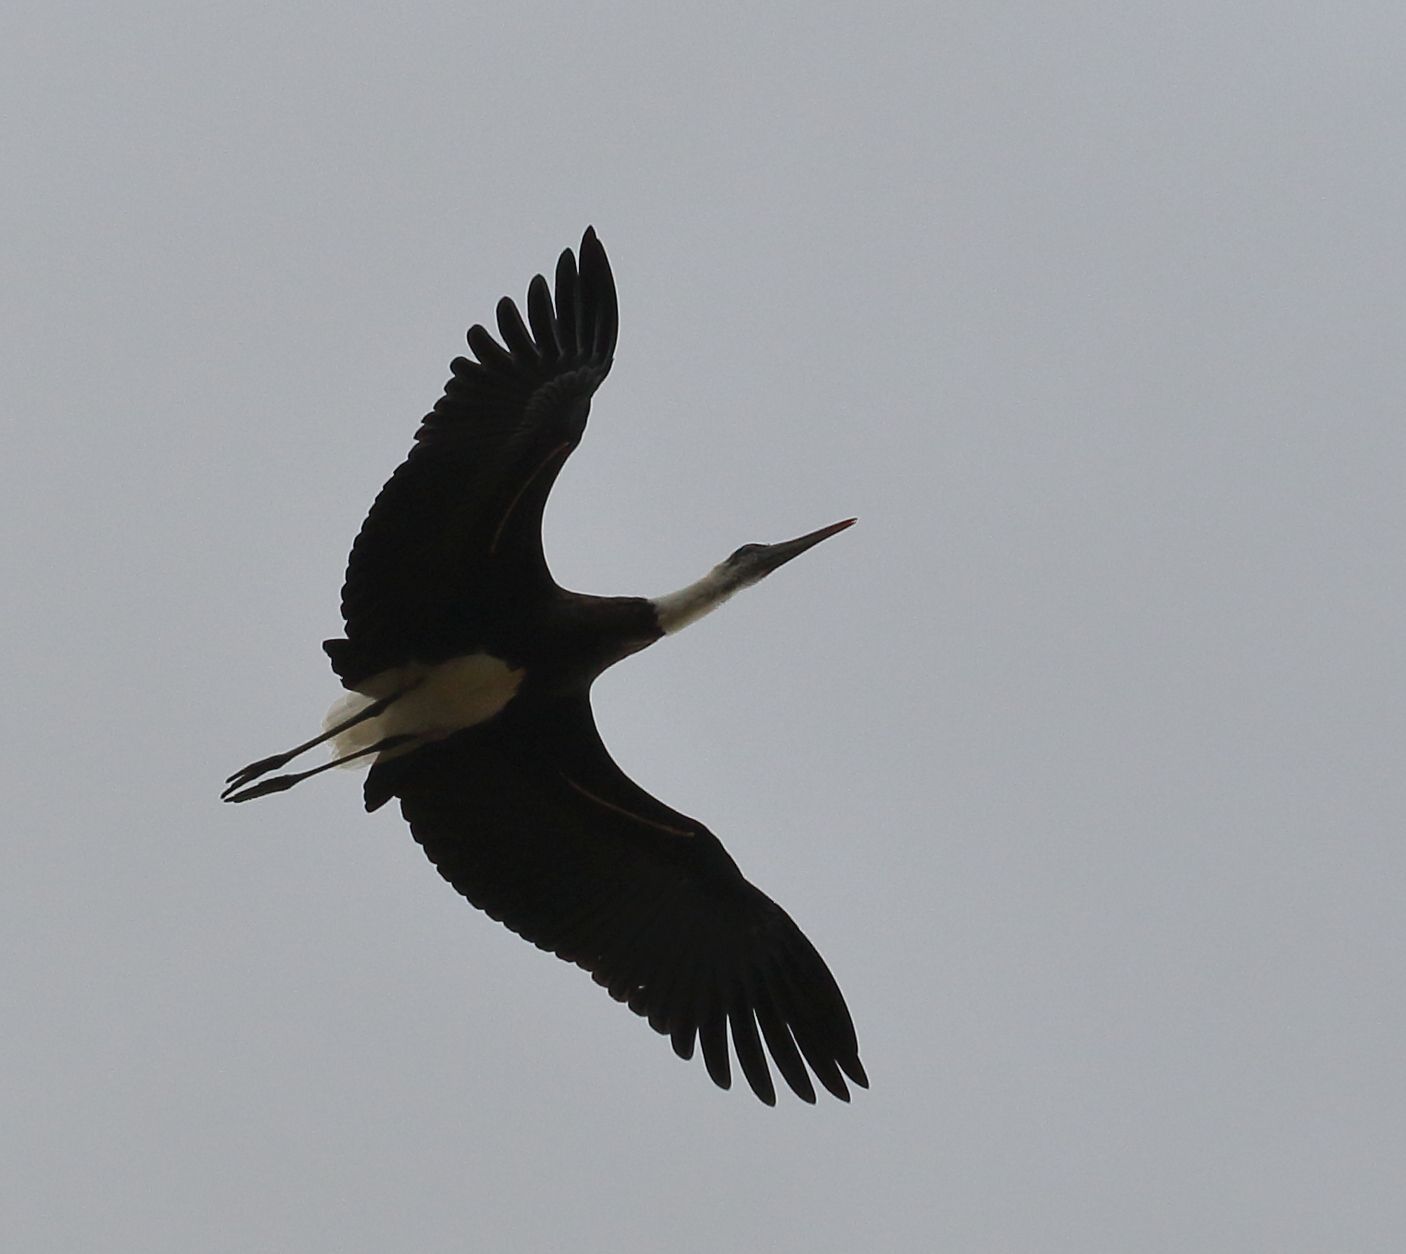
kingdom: Animalia
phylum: Chordata
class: Aves
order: Ciconiiformes
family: Ciconiidae
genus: Ciconia
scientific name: Ciconia microscelis
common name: African woollyneck
